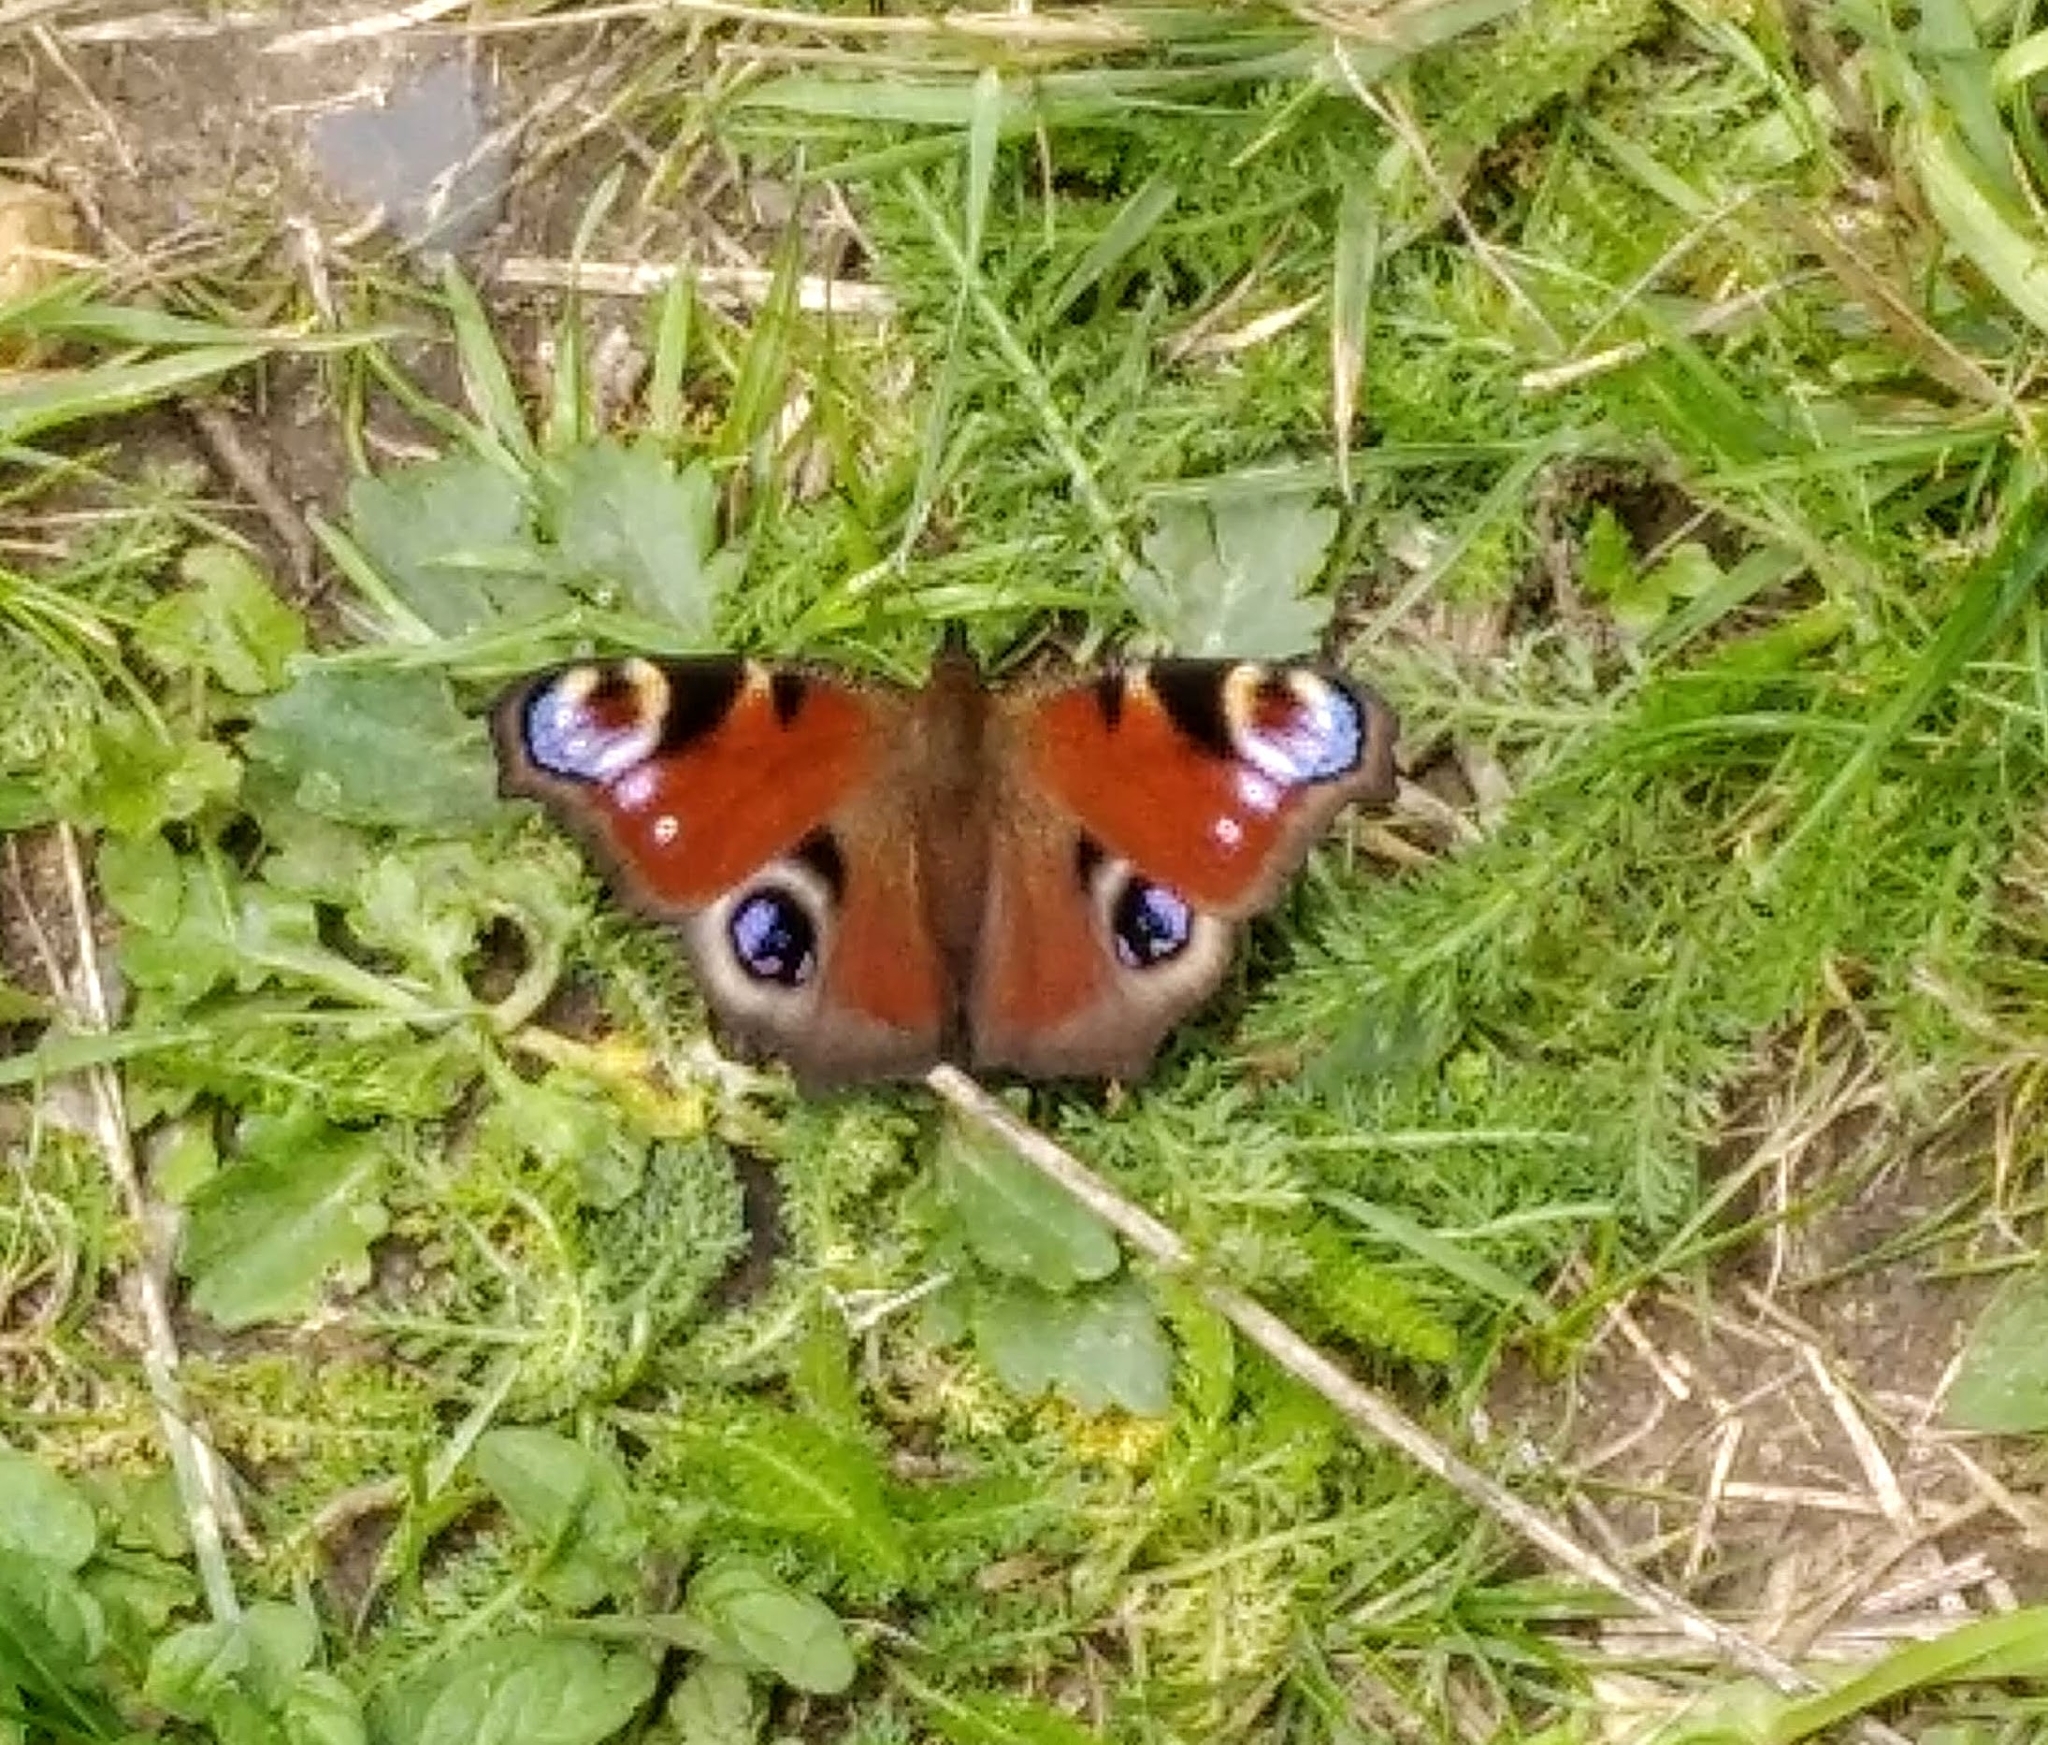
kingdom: Animalia
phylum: Arthropoda
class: Insecta
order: Lepidoptera
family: Nymphalidae
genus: Aglais
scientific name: Aglais io
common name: Peacock
